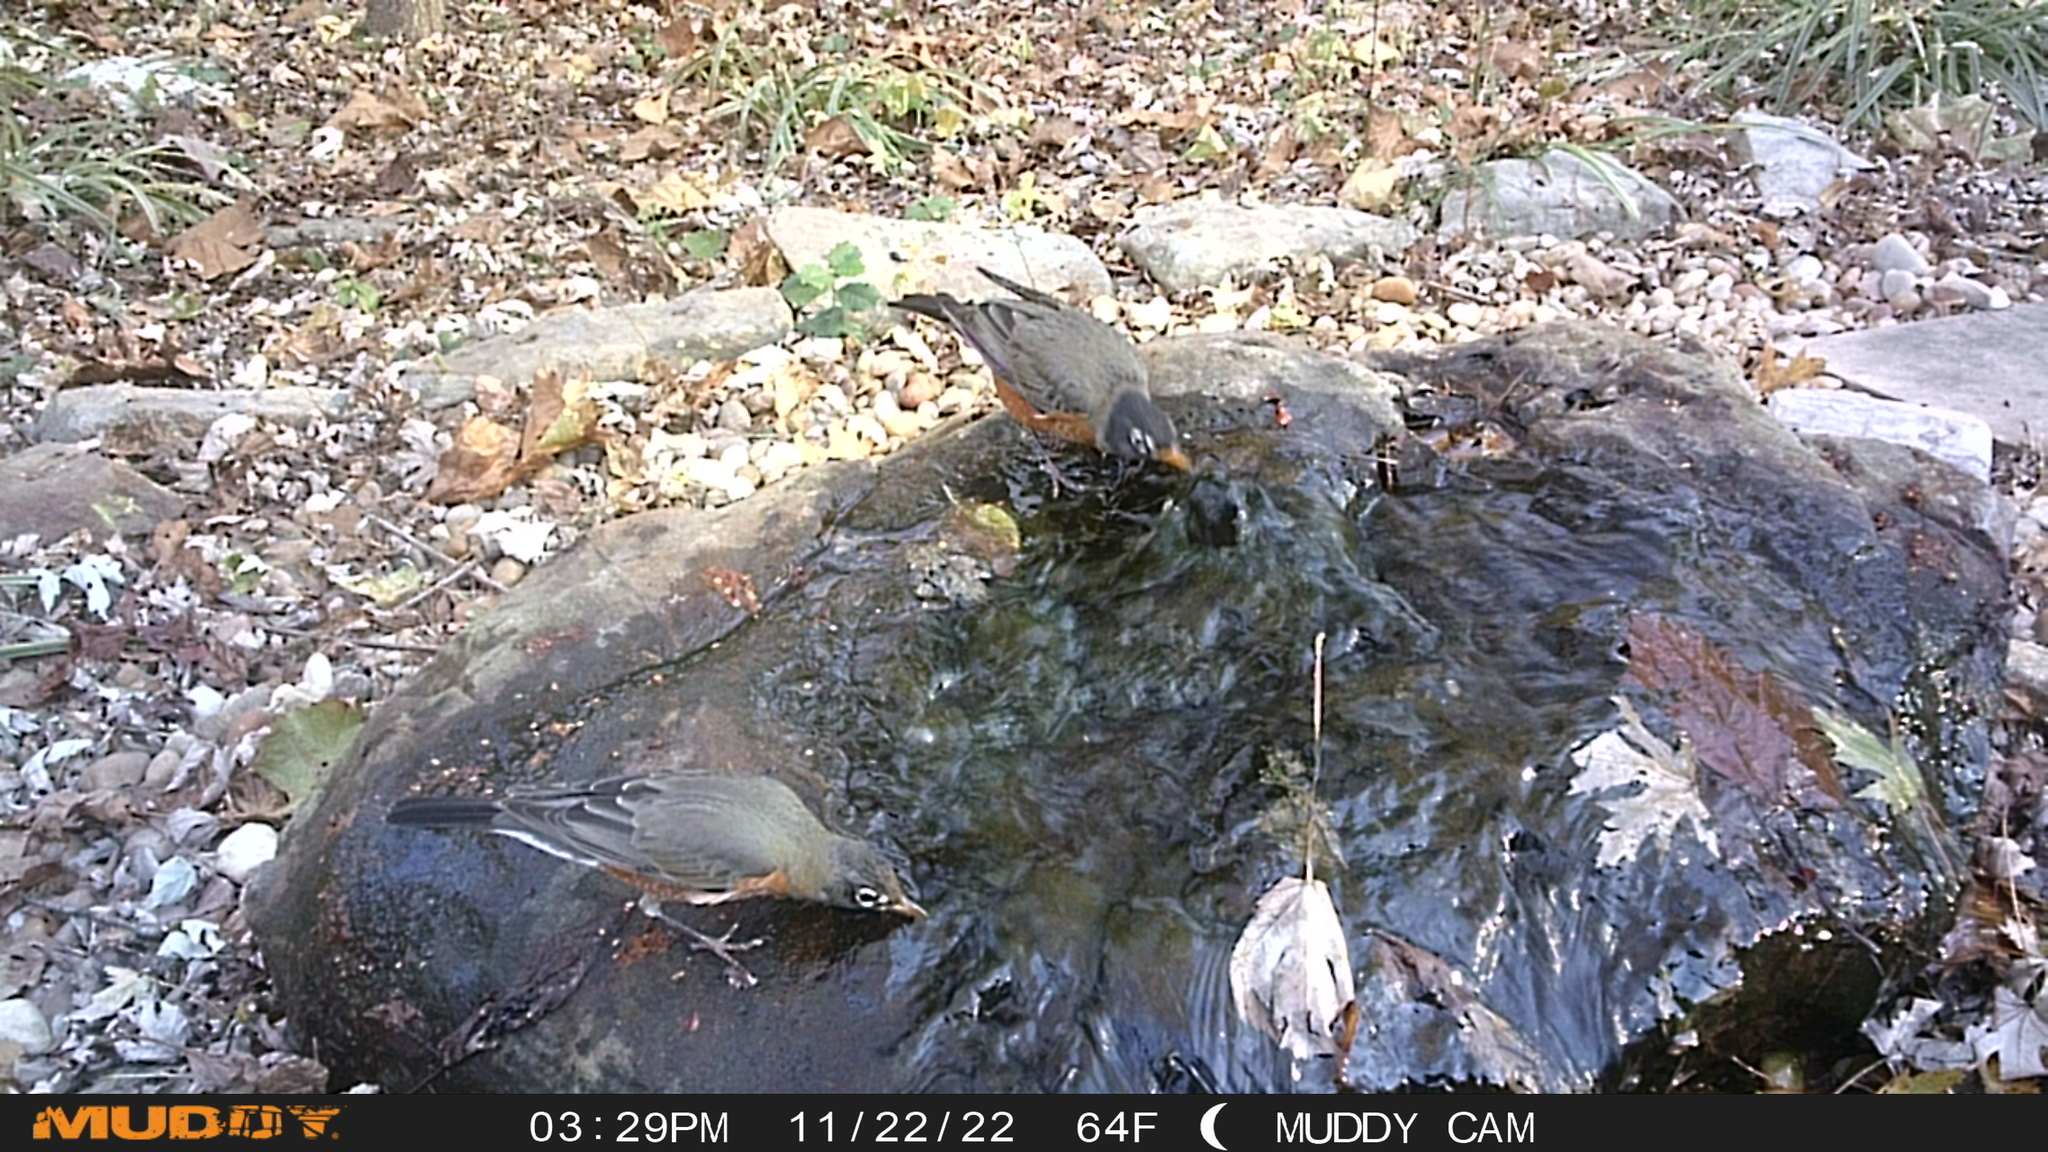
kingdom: Animalia
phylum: Chordata
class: Aves
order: Passeriformes
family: Turdidae
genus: Turdus
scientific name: Turdus migratorius
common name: American robin
